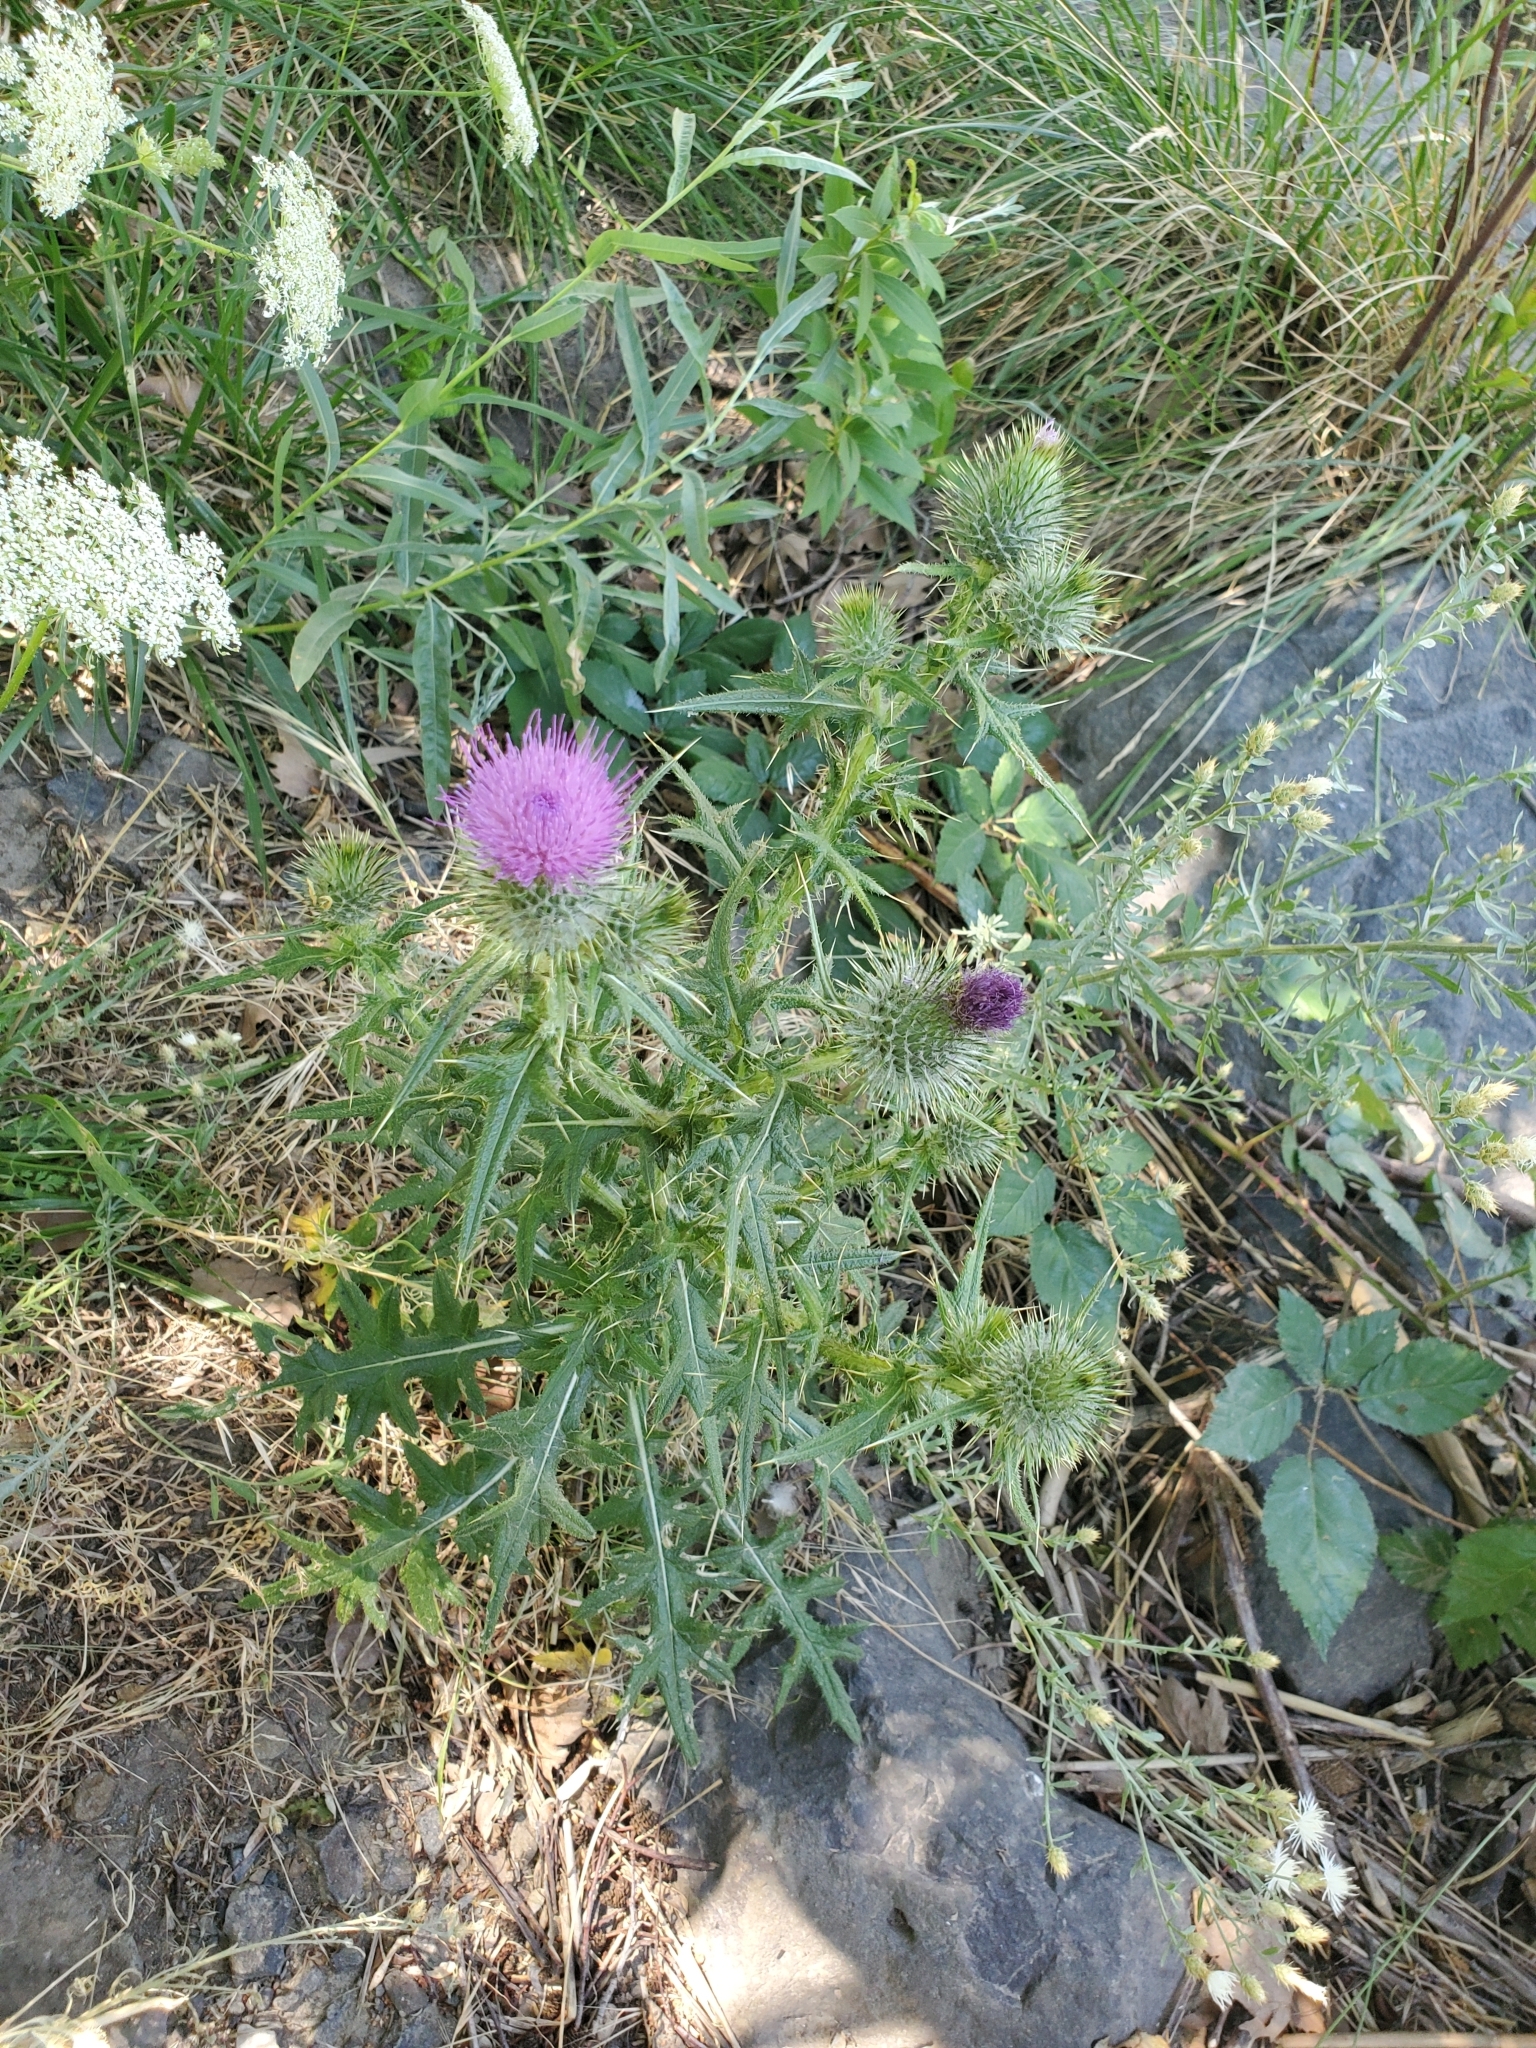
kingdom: Plantae
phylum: Tracheophyta
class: Magnoliopsida
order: Asterales
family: Asteraceae
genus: Cirsium
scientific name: Cirsium vulgare
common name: Bull thistle
